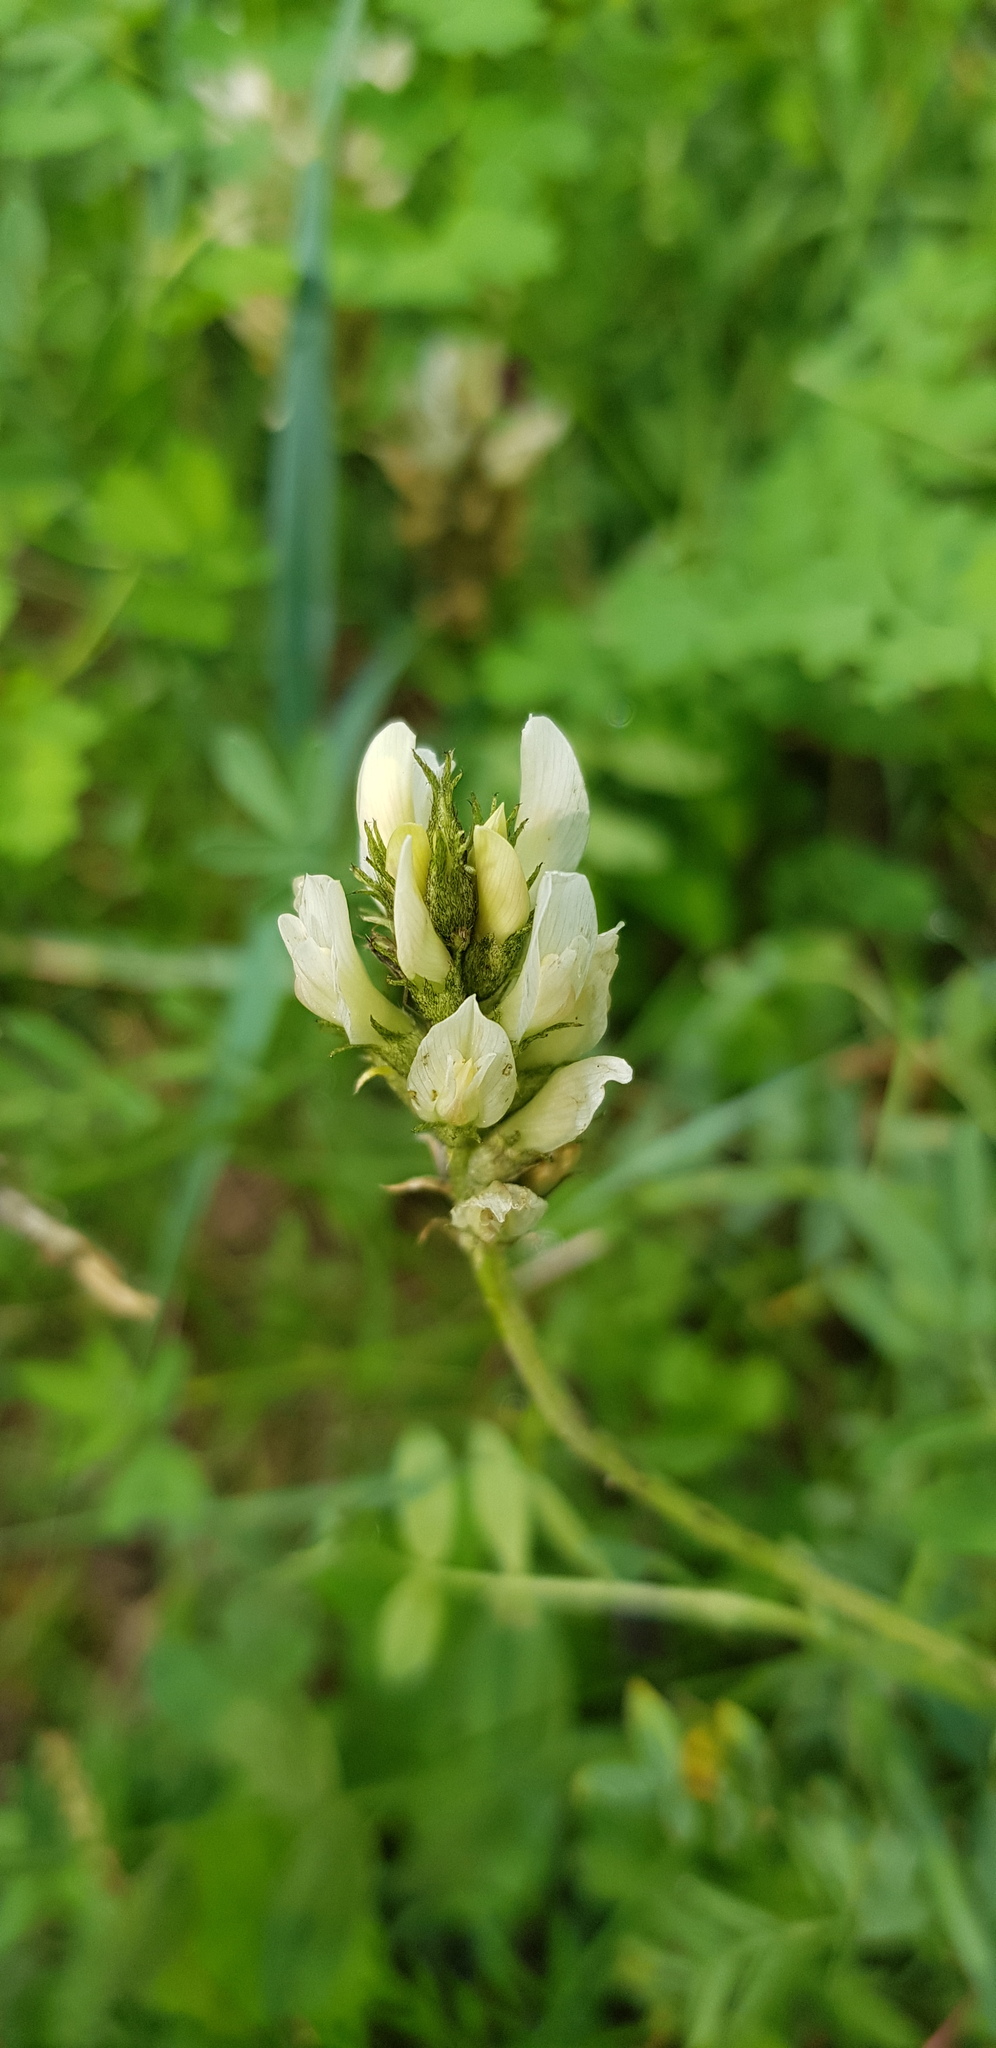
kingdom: Plantae
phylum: Tracheophyta
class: Magnoliopsida
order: Fabales
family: Fabaceae
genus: Astragalus
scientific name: Astragalus laxmannii
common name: Laxmann's milk-vetch
